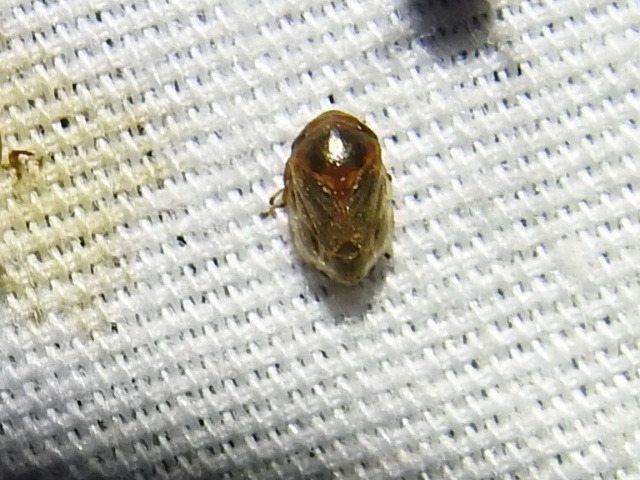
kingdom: Animalia
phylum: Arthropoda
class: Insecta
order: Hemiptera
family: Clastopteridae
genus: Clastoptera
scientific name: Clastoptera xanthocephala
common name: Sunflower spittlebug
